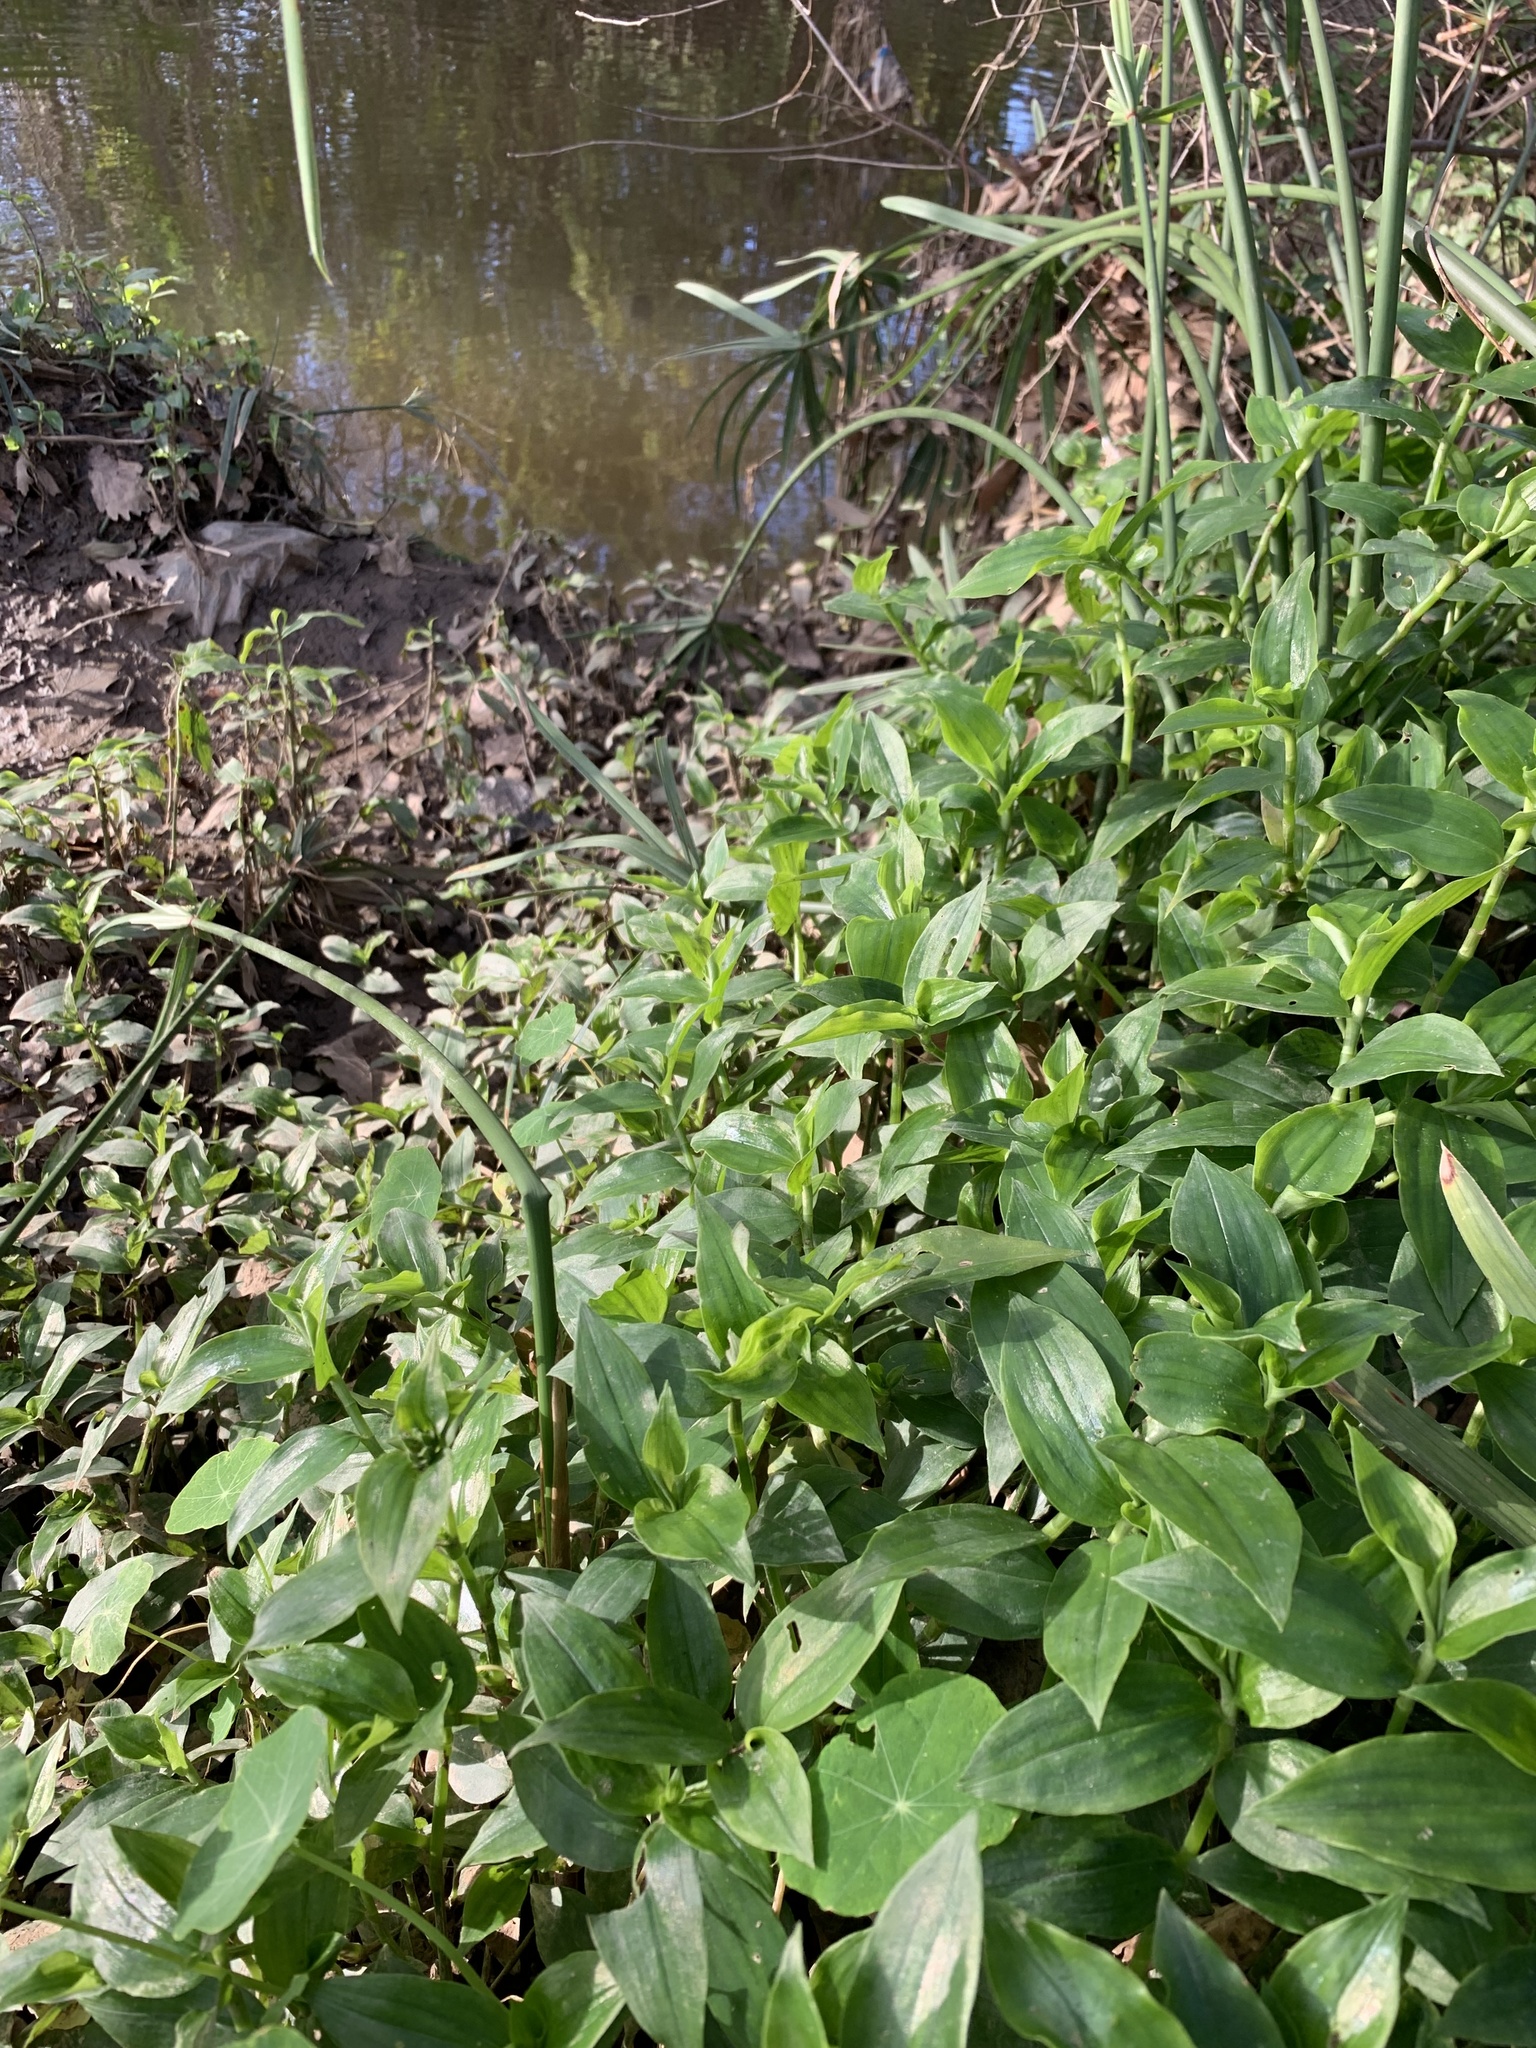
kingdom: Plantae
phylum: Tracheophyta
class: Liliopsida
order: Commelinales
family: Commelinaceae
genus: Tradescantia
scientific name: Tradescantia fluminensis
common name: Wandering-jew
